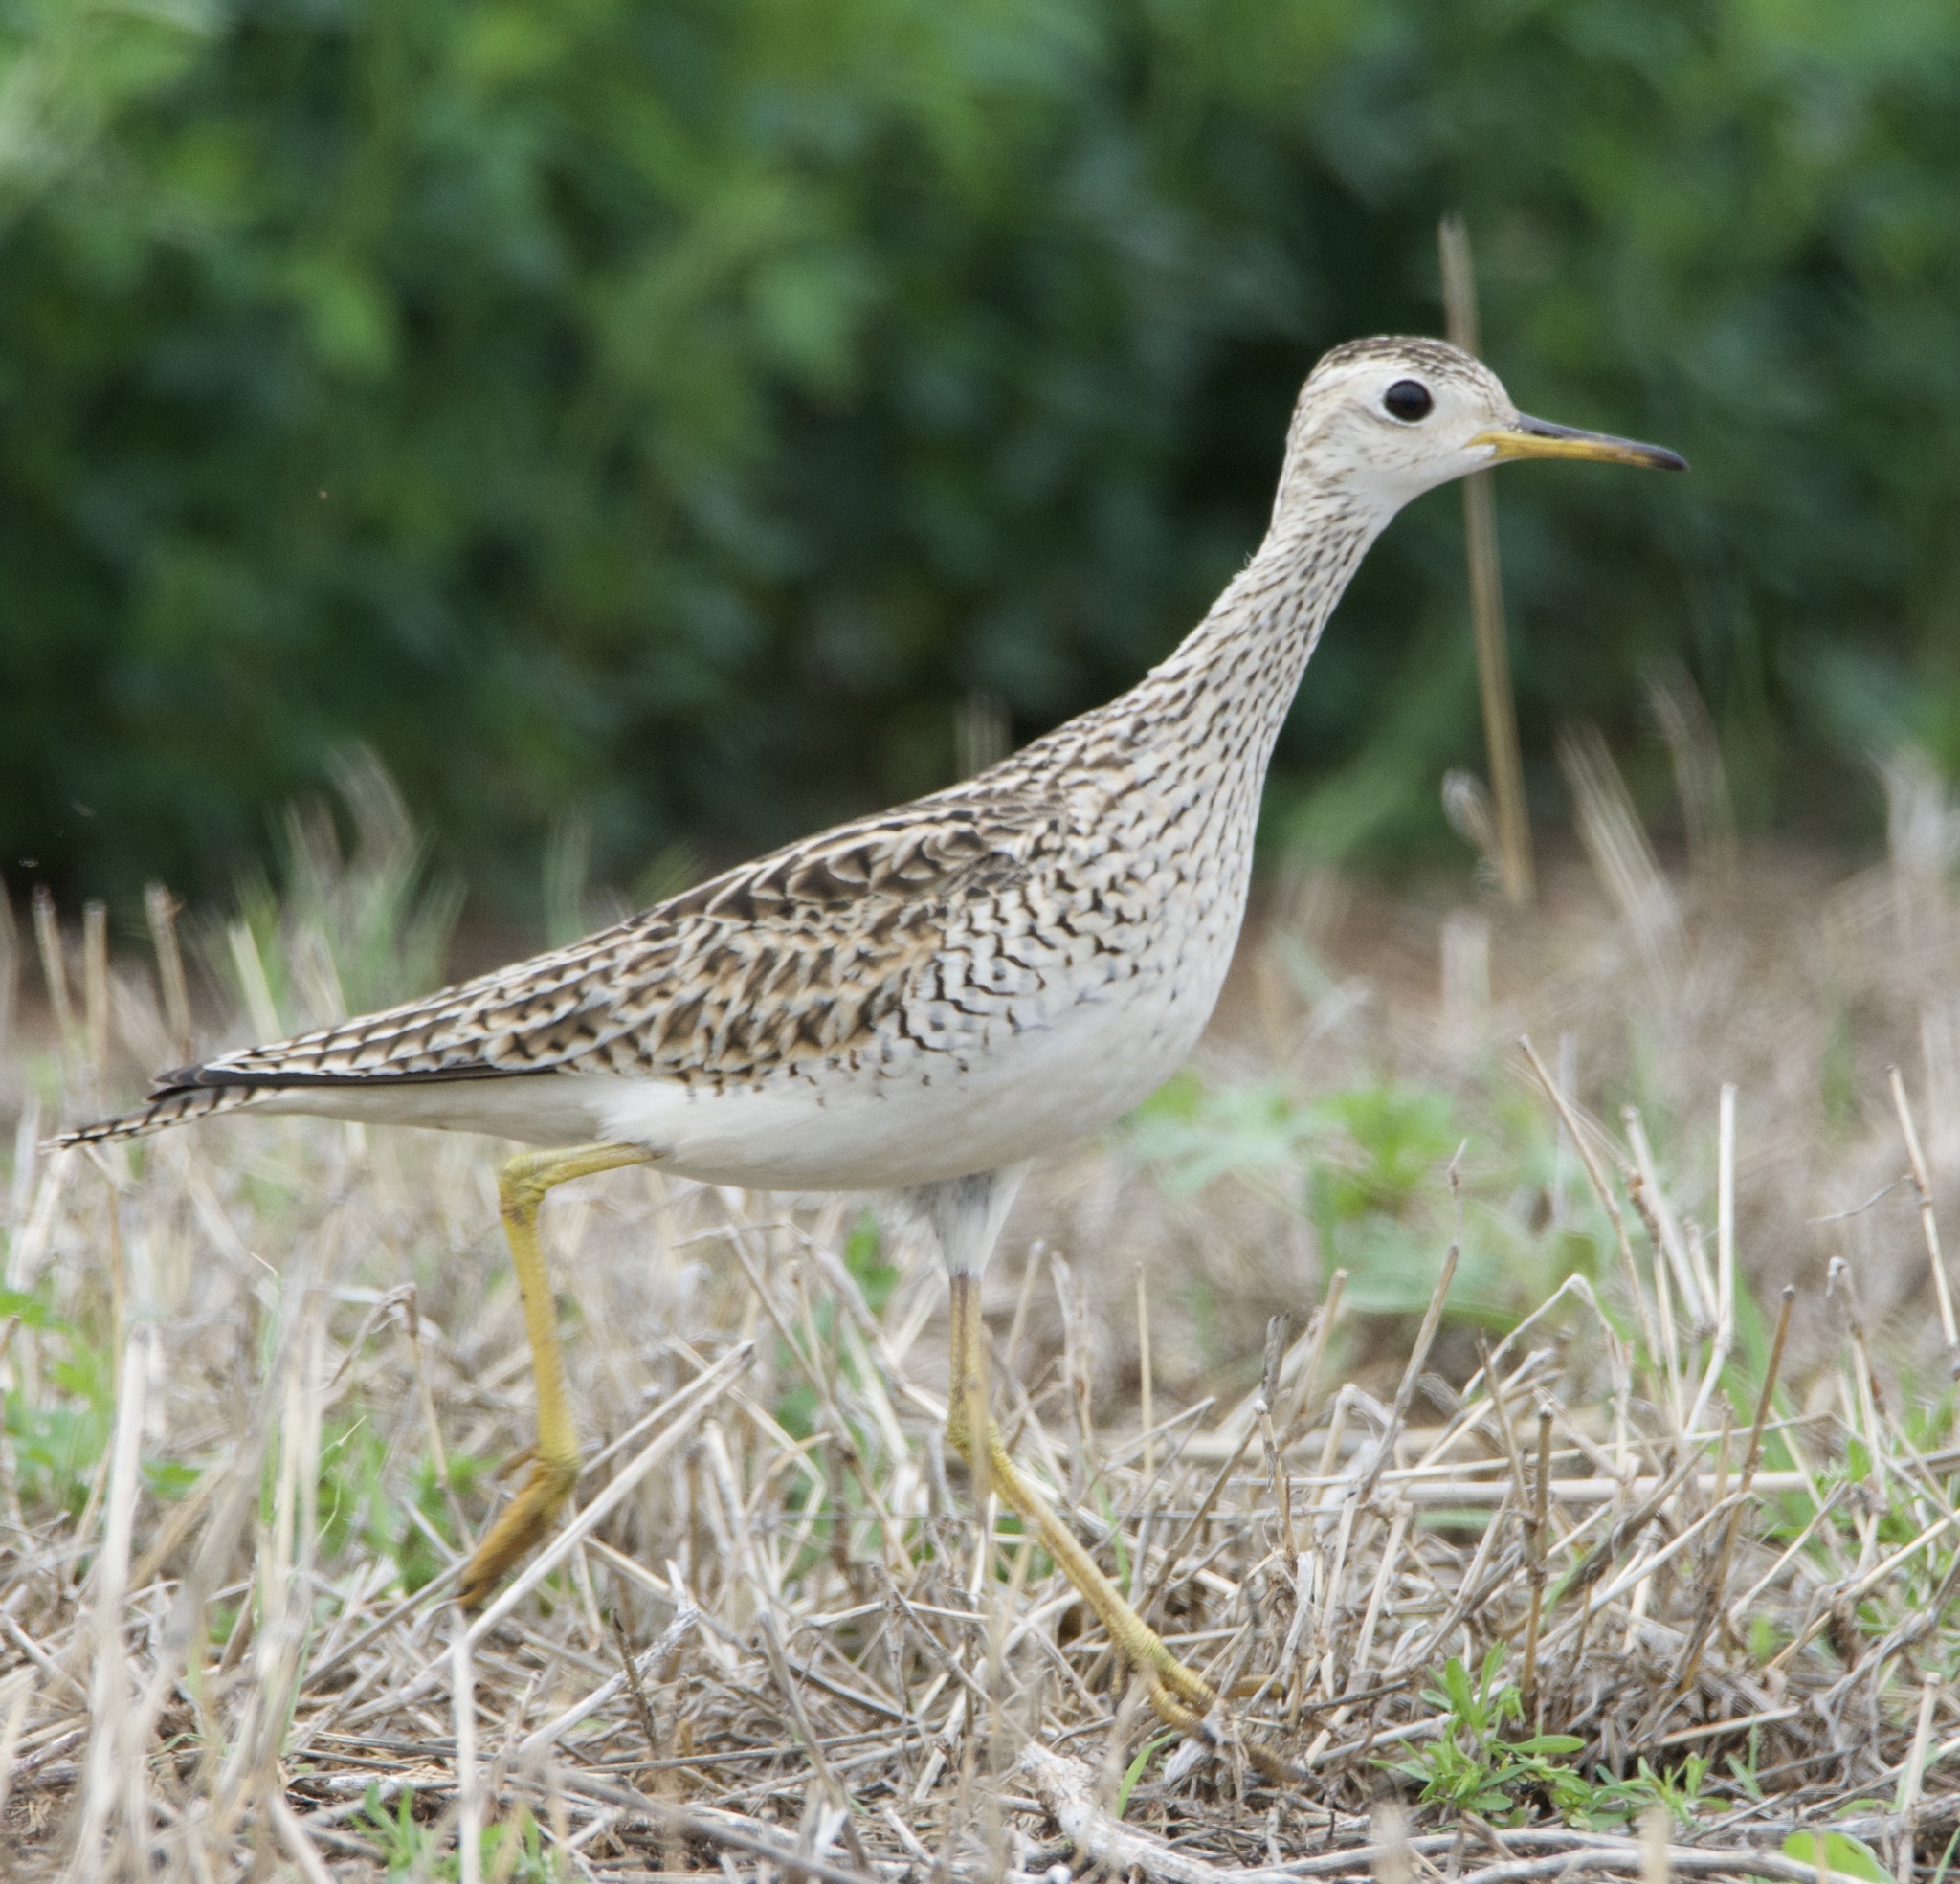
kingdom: Animalia
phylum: Chordata
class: Aves
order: Charadriiformes
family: Scolopacidae
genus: Bartramia
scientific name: Bartramia longicauda
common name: Upland sandpiper
